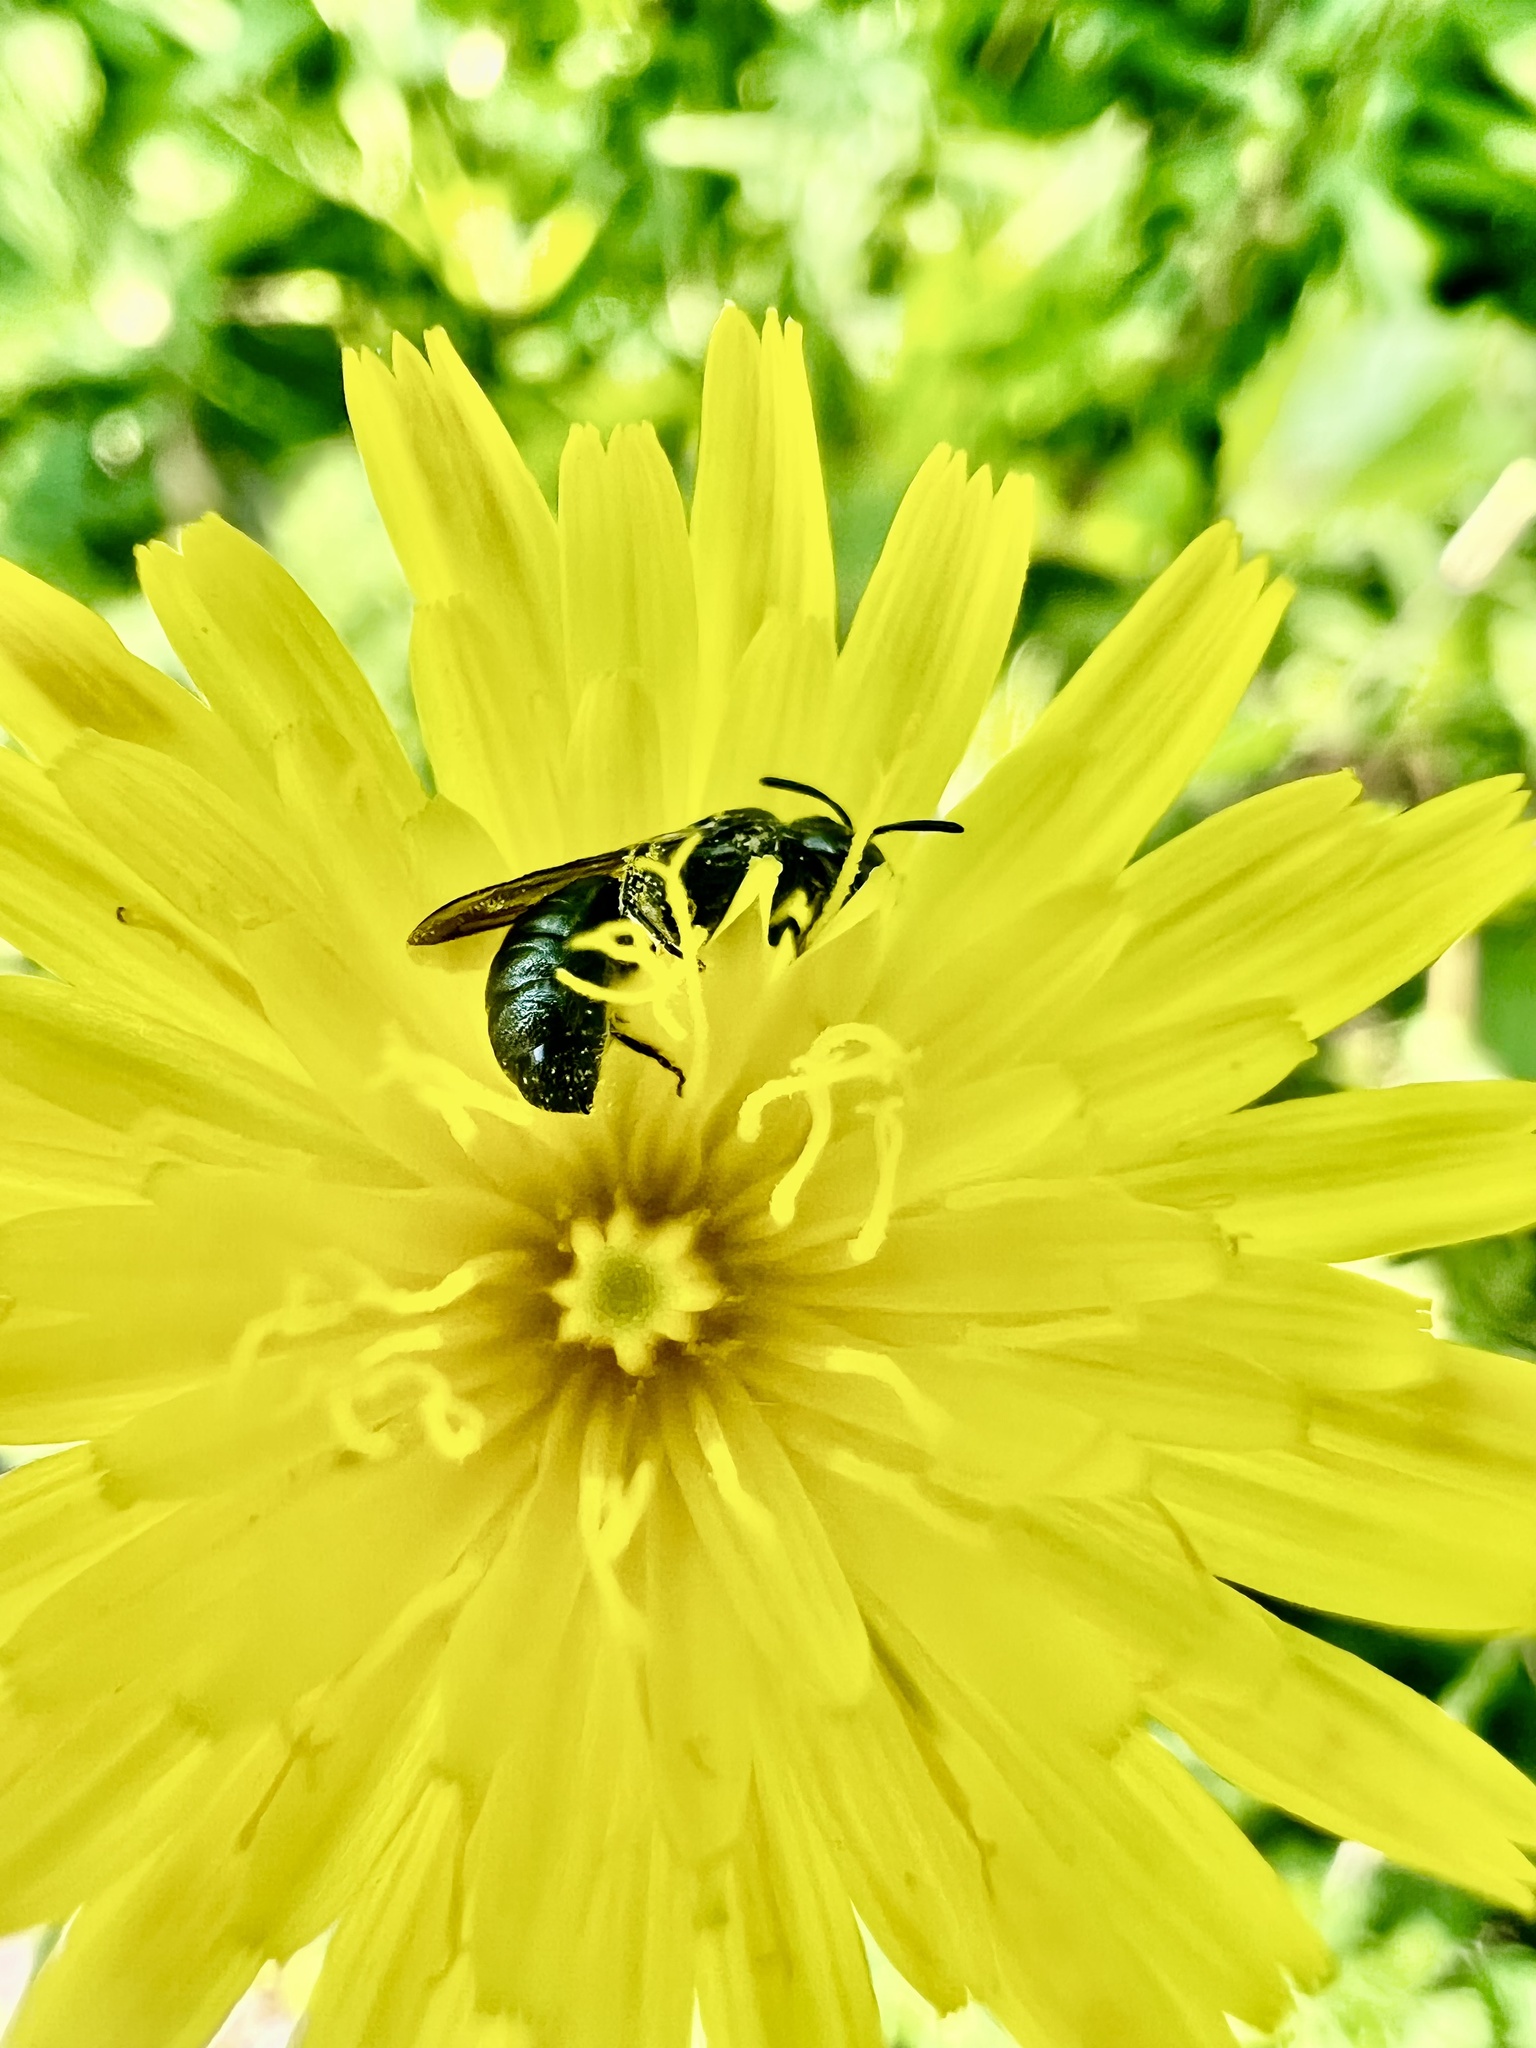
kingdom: Animalia
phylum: Arthropoda
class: Insecta
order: Hymenoptera
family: Apidae
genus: Zadontomerus
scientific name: Zadontomerus
